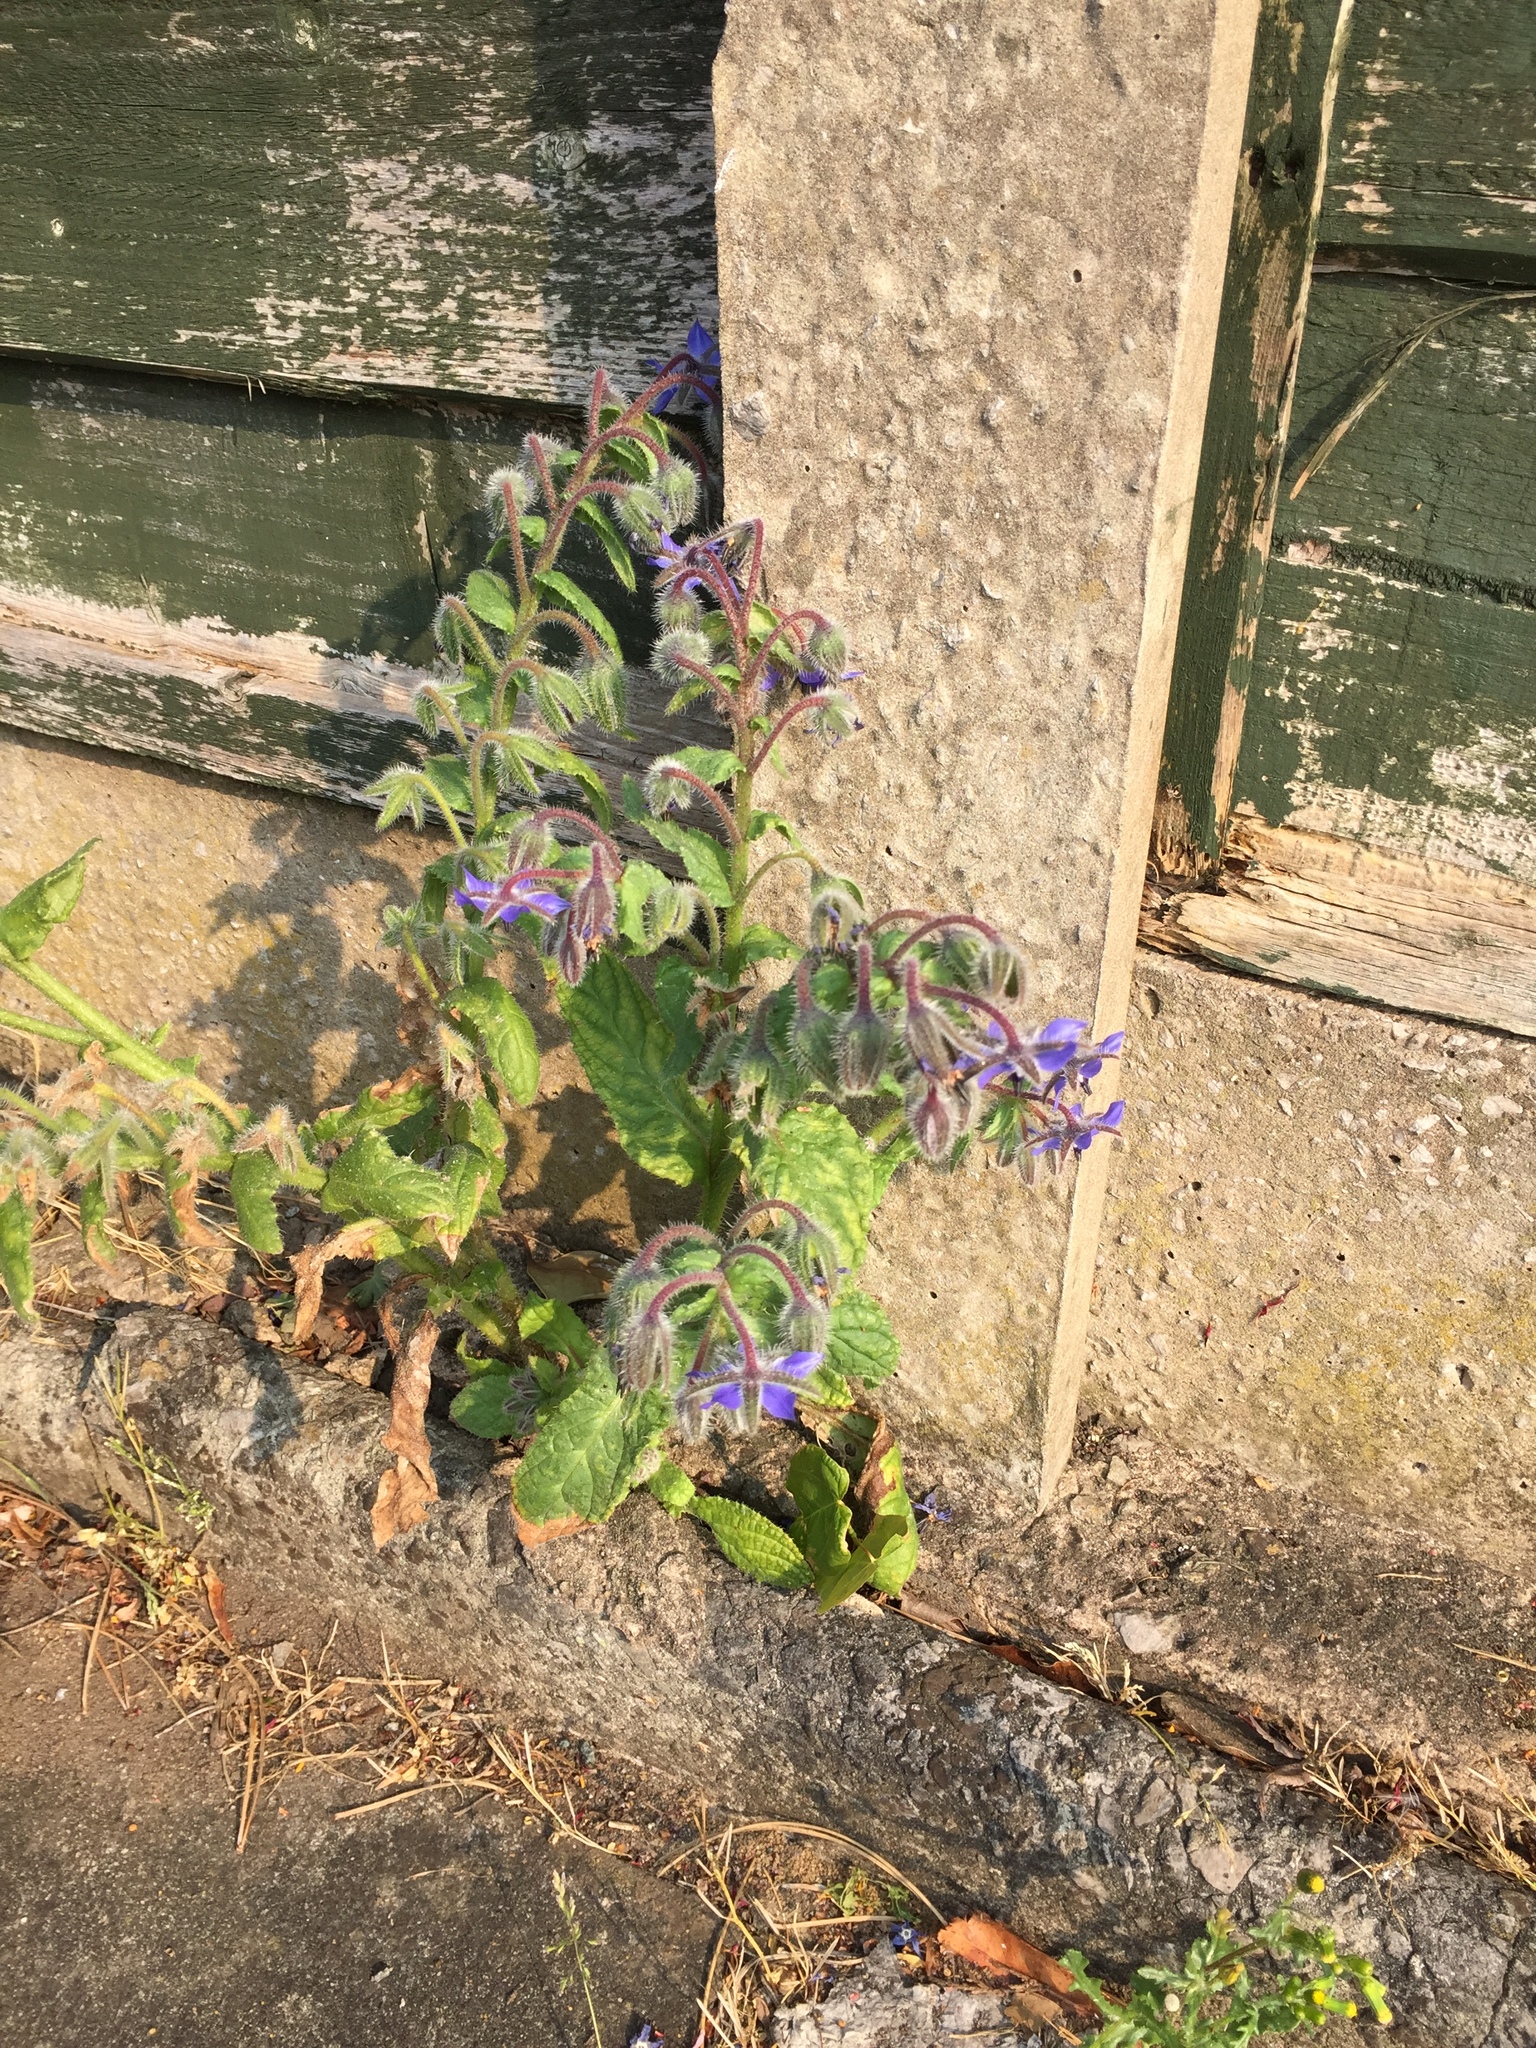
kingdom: Plantae
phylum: Tracheophyta
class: Magnoliopsida
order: Boraginales
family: Boraginaceae
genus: Borago
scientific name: Borago officinalis
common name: Borage
